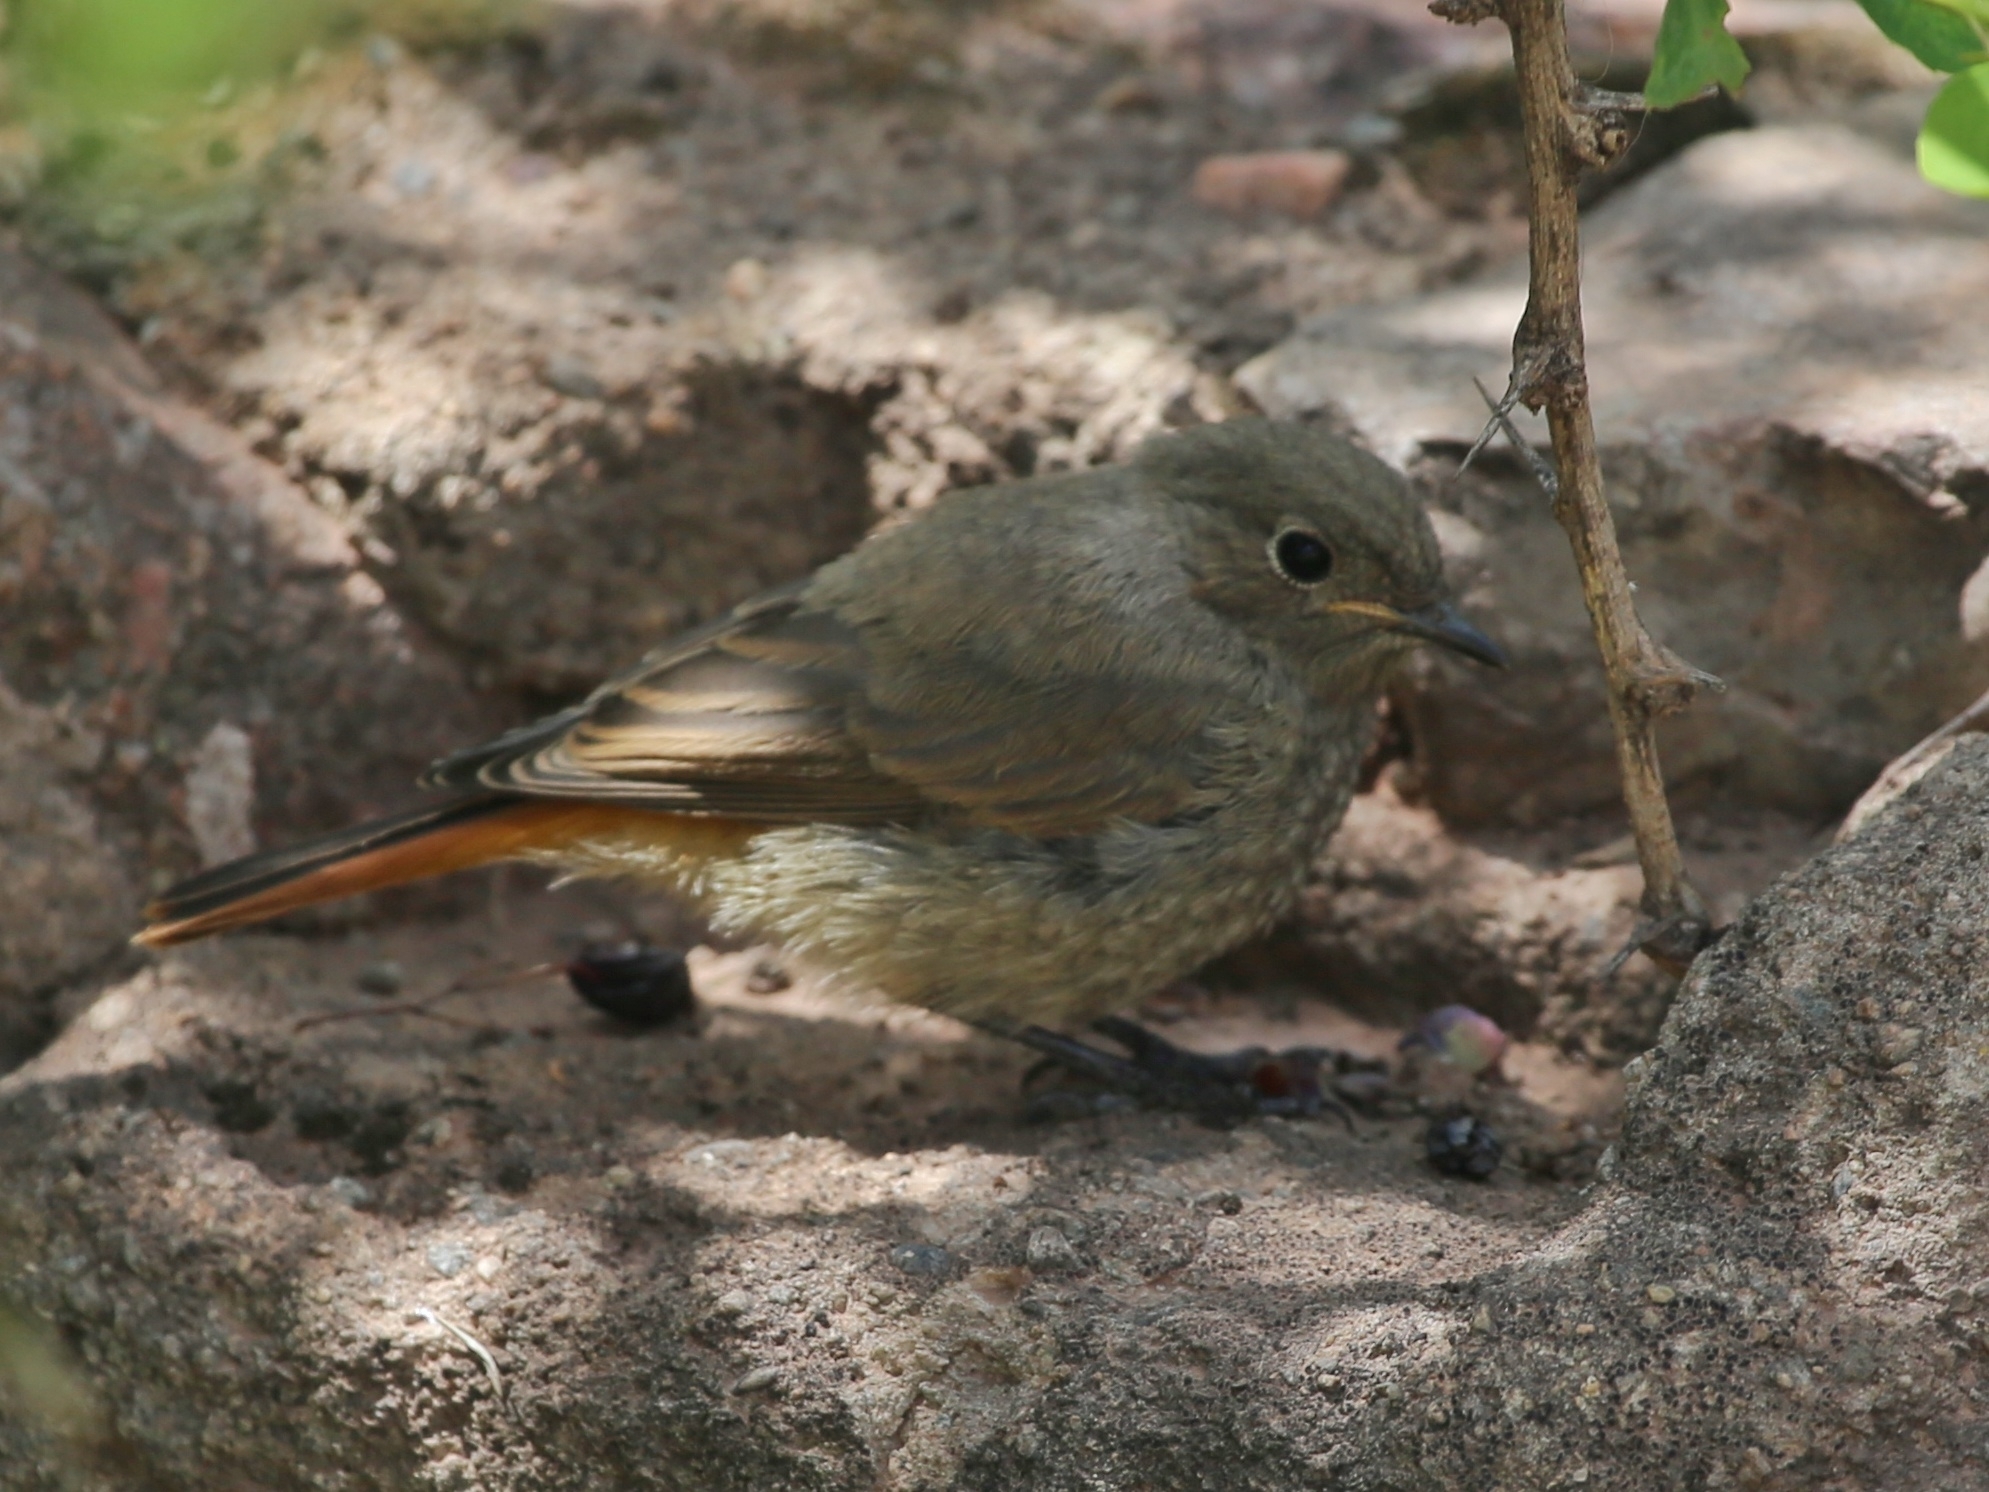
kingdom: Animalia
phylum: Chordata
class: Aves
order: Passeriformes
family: Muscicapidae
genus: Phoenicurus
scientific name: Phoenicurus phoenicurus
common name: Common redstart
